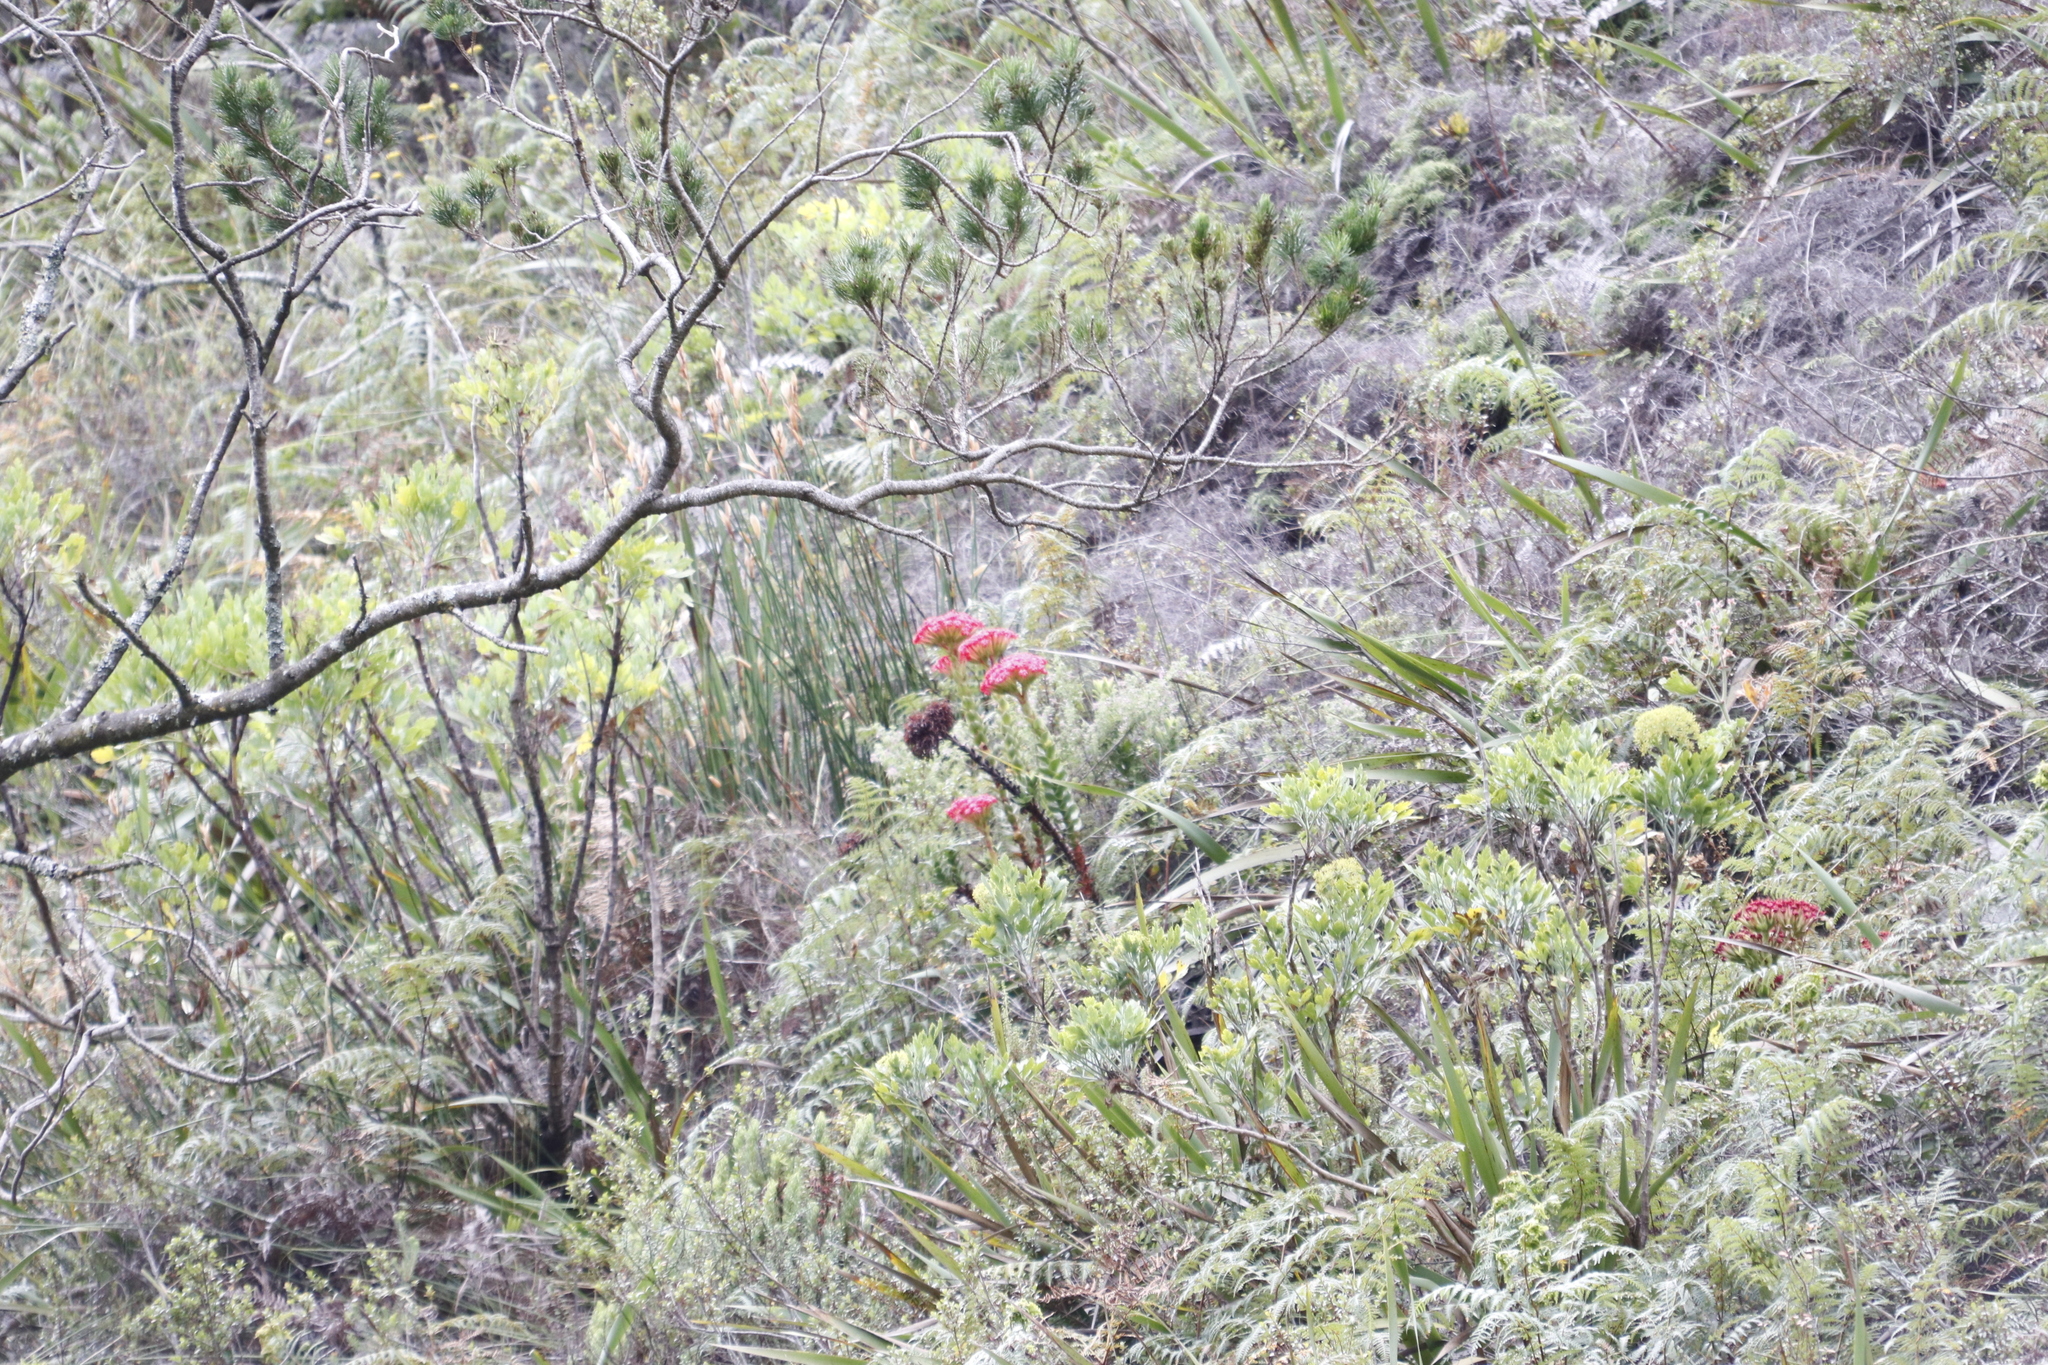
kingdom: Plantae
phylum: Tracheophyta
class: Magnoliopsida
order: Saxifragales
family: Crassulaceae
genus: Crassula
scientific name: Crassula coccinea
